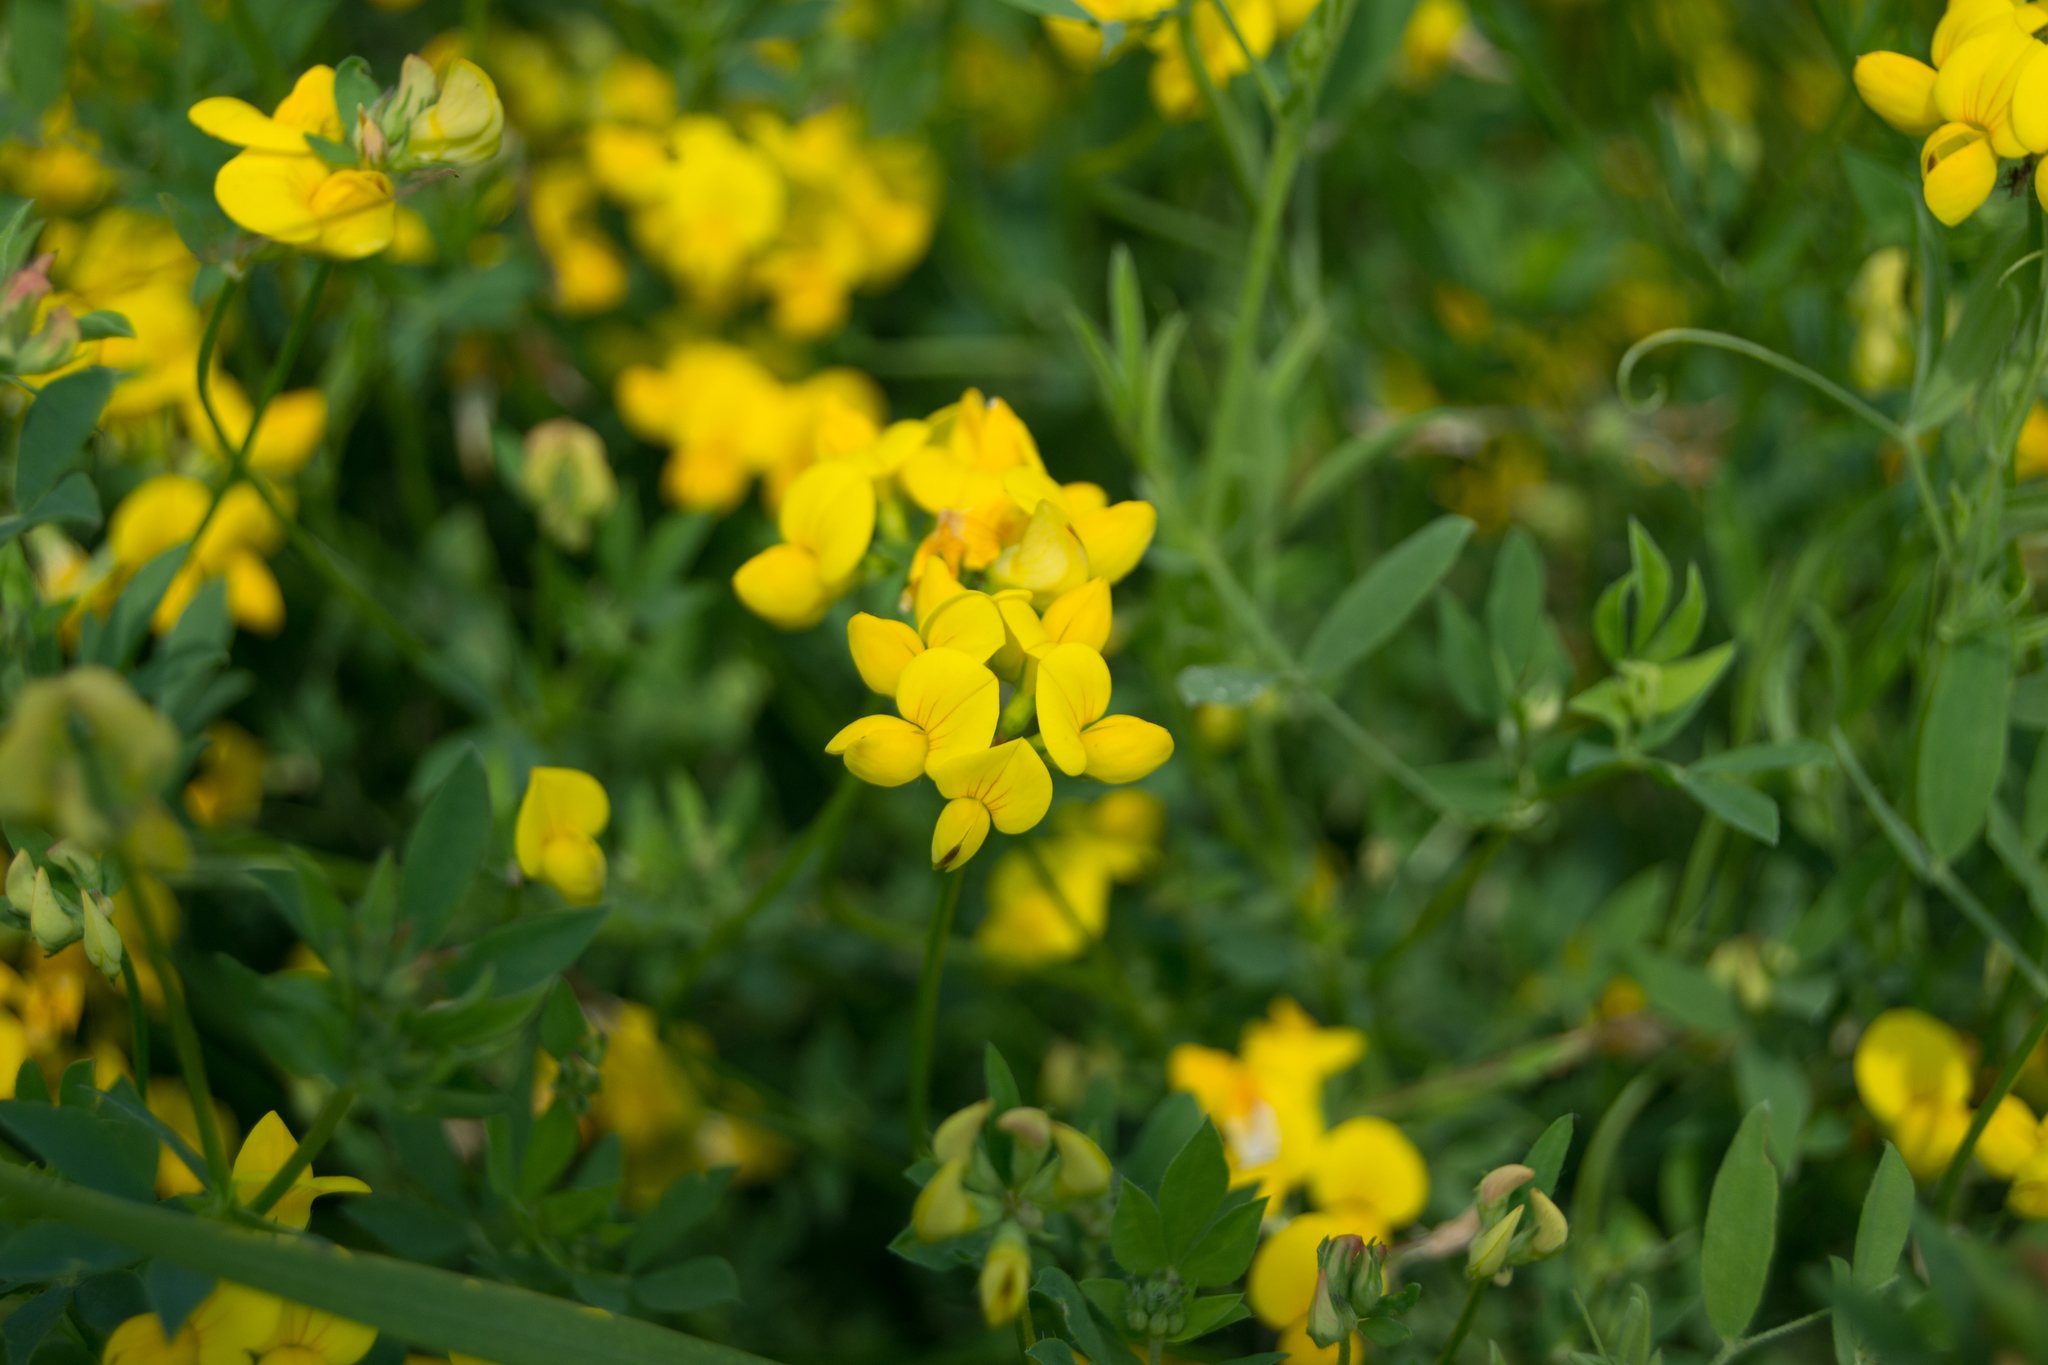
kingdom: Plantae
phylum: Tracheophyta
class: Magnoliopsida
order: Fabales
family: Fabaceae
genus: Lathyrus
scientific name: Lathyrus pratensis
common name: Meadow vetchling
